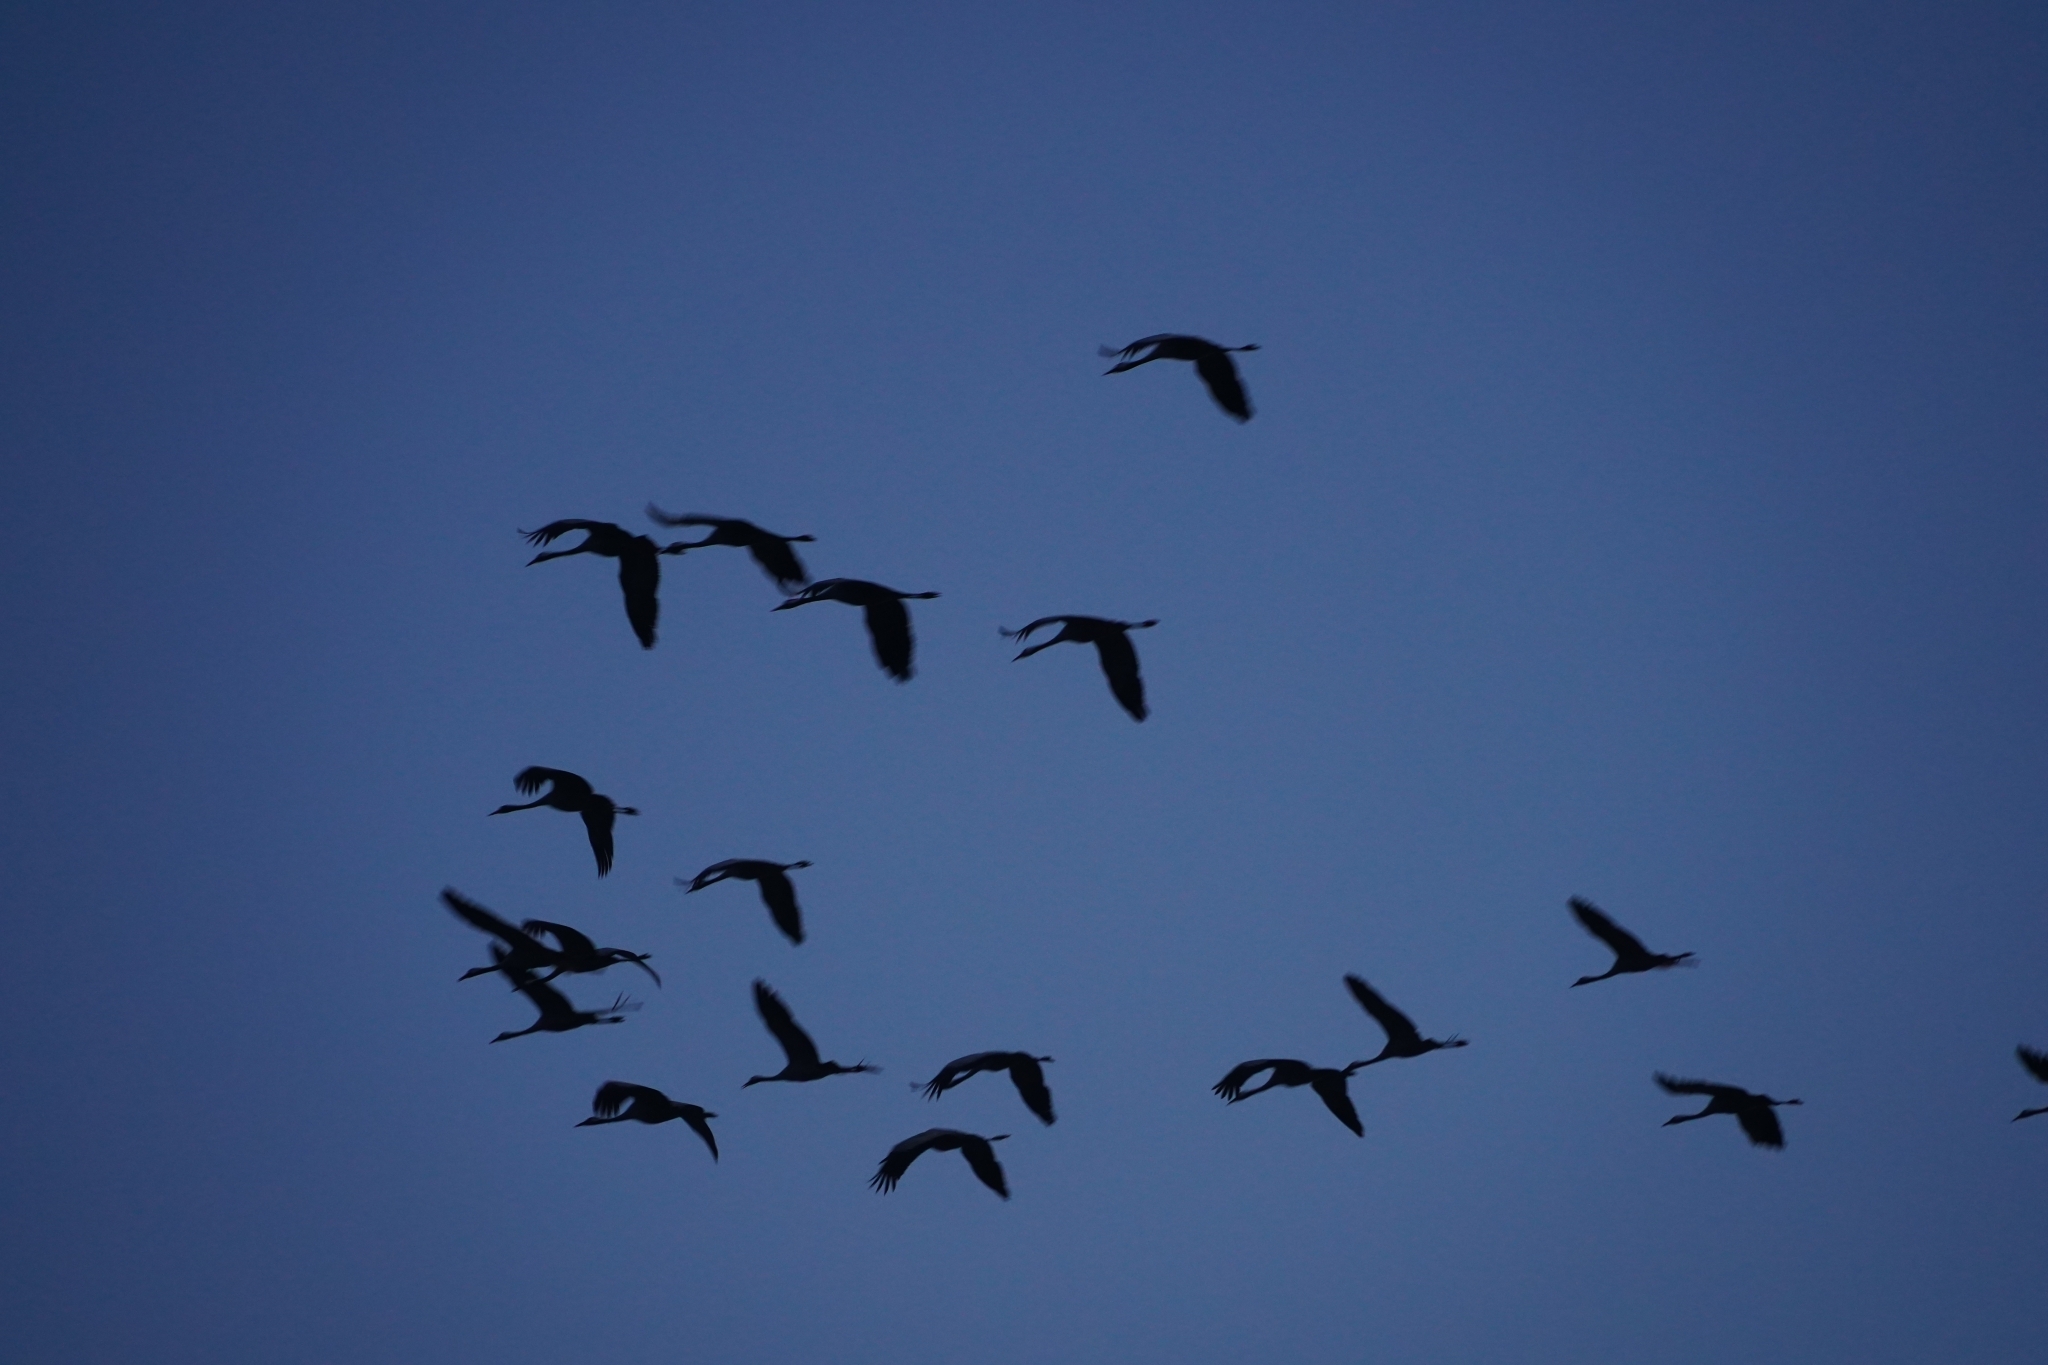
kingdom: Animalia
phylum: Chordata
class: Aves
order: Gruiformes
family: Gruidae
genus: Grus
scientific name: Grus grus
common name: Common crane
